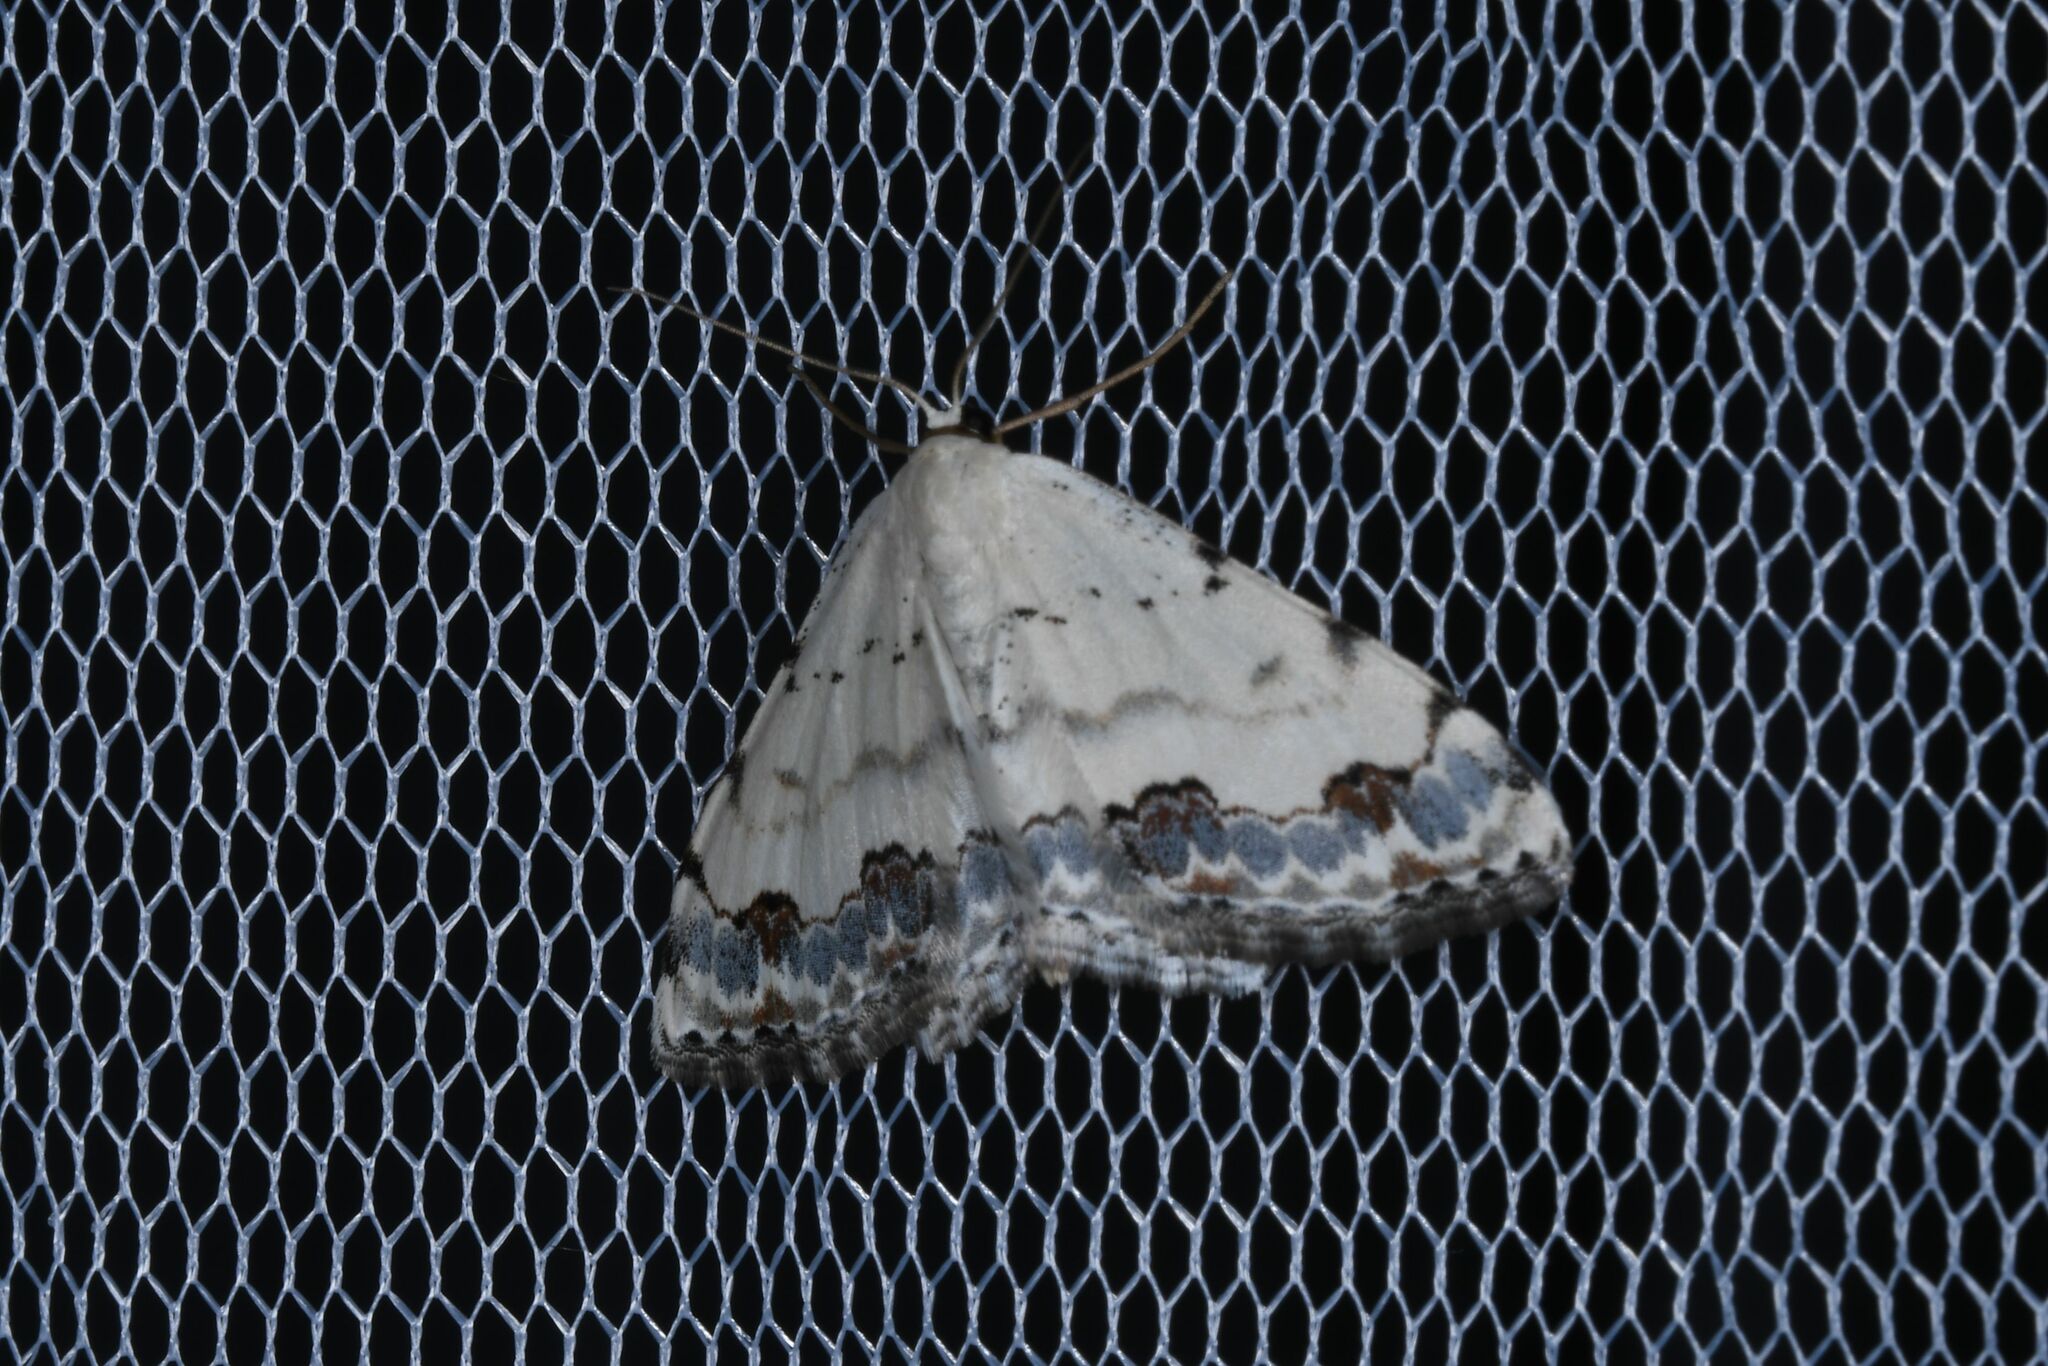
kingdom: Animalia
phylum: Arthropoda
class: Insecta
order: Lepidoptera
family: Geometridae
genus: Scopula
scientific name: Scopula decorata
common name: Middle lace border
